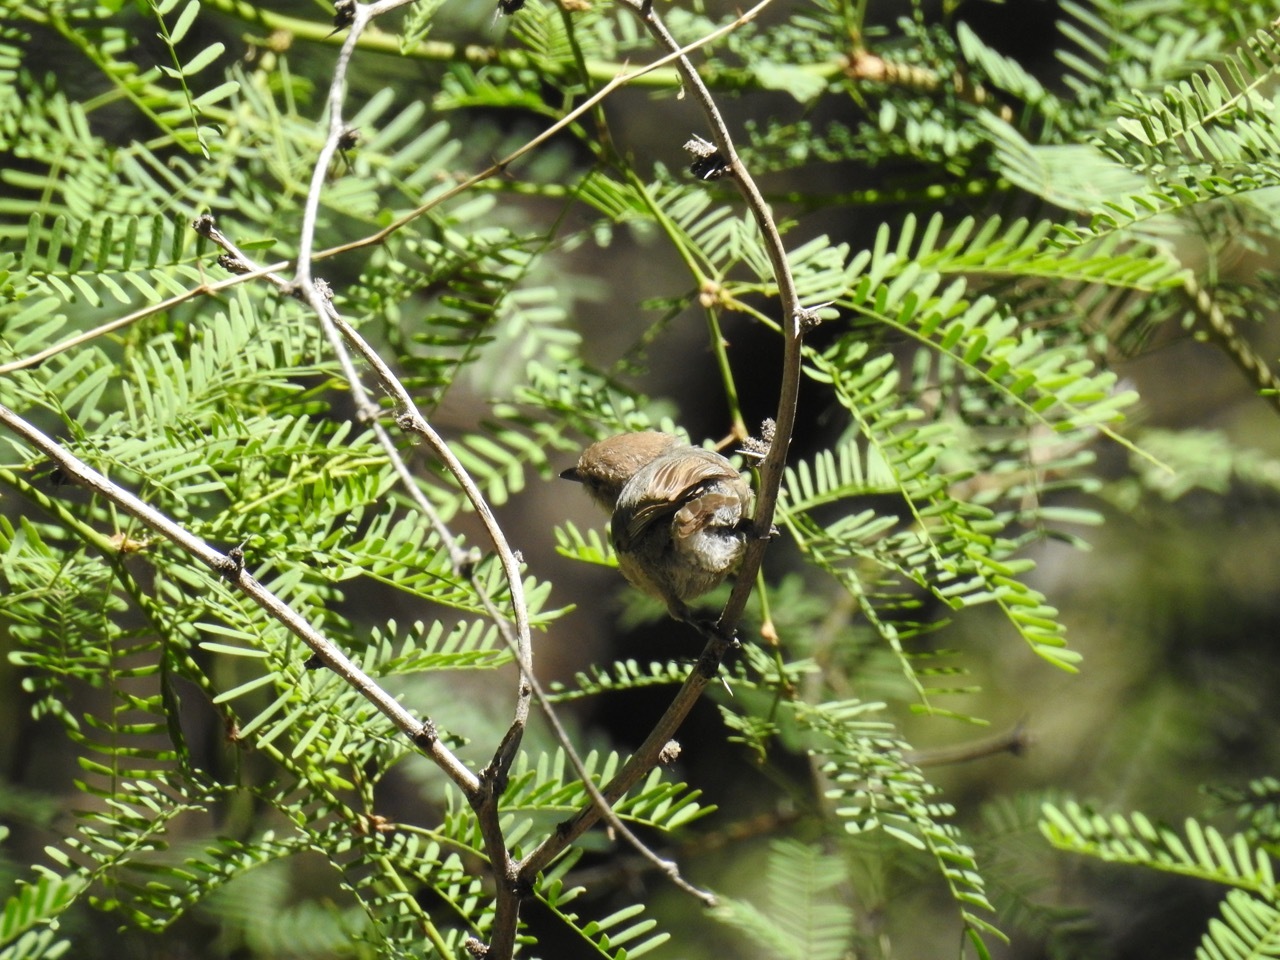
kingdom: Animalia
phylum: Chordata
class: Aves
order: Passeriformes
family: Aegithalidae
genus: Psaltriparus
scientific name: Psaltriparus minimus
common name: American bushtit
